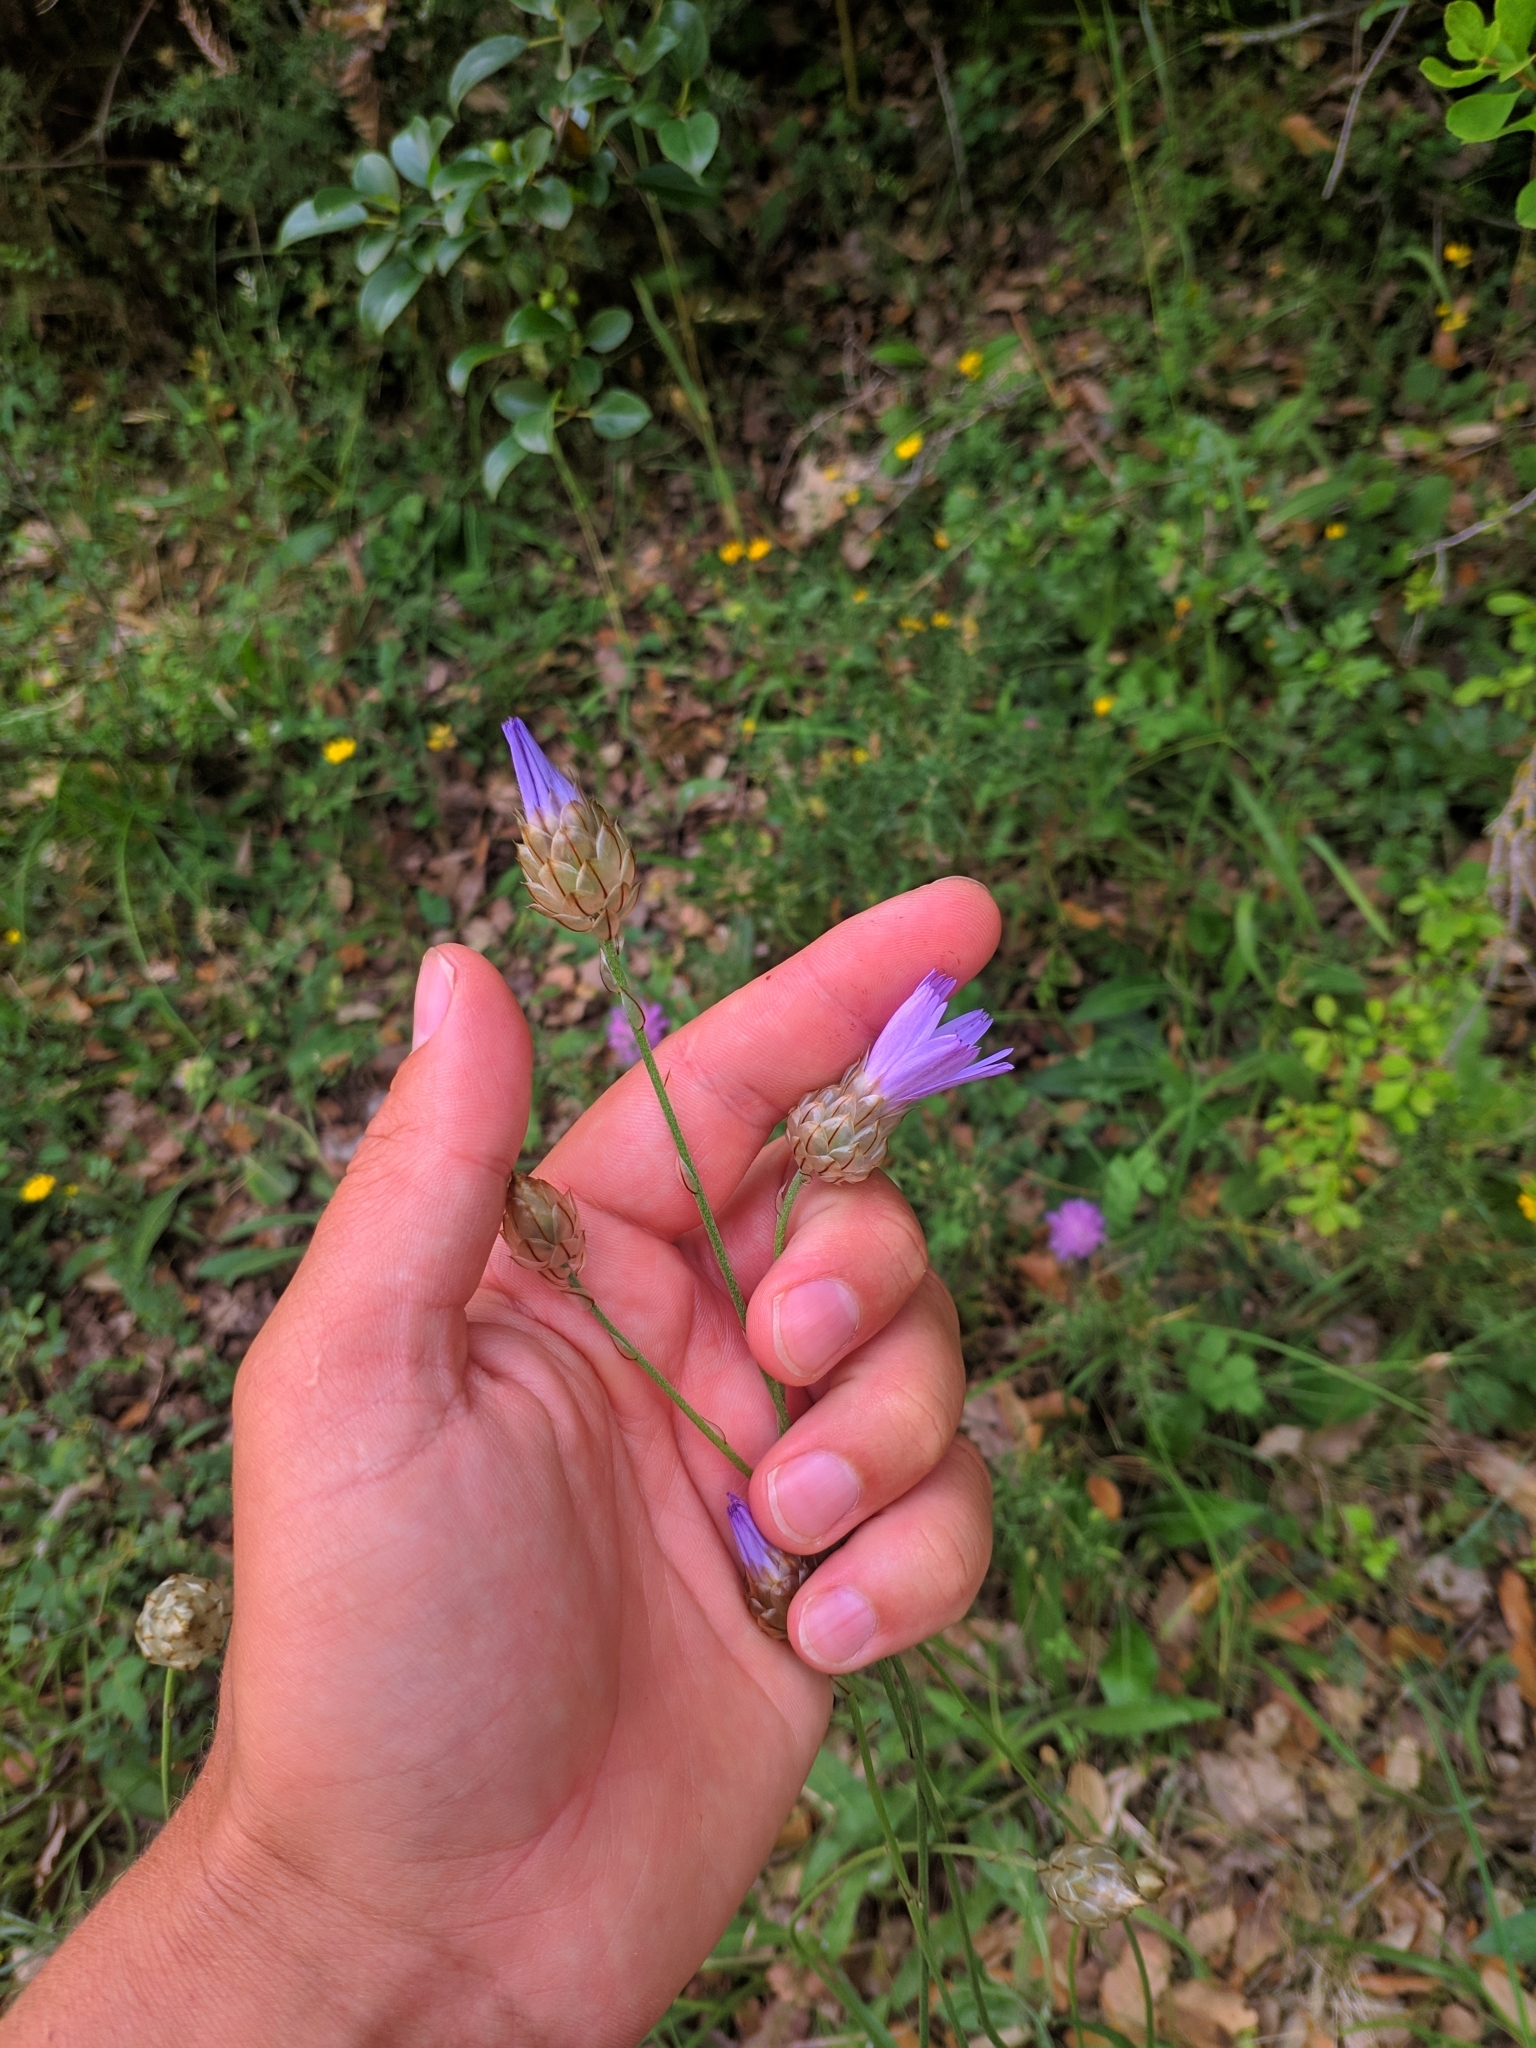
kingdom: Plantae
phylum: Tracheophyta
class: Magnoliopsida
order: Asterales
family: Asteraceae
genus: Catananche
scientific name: Catananche caerulea
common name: Blue cupidone
